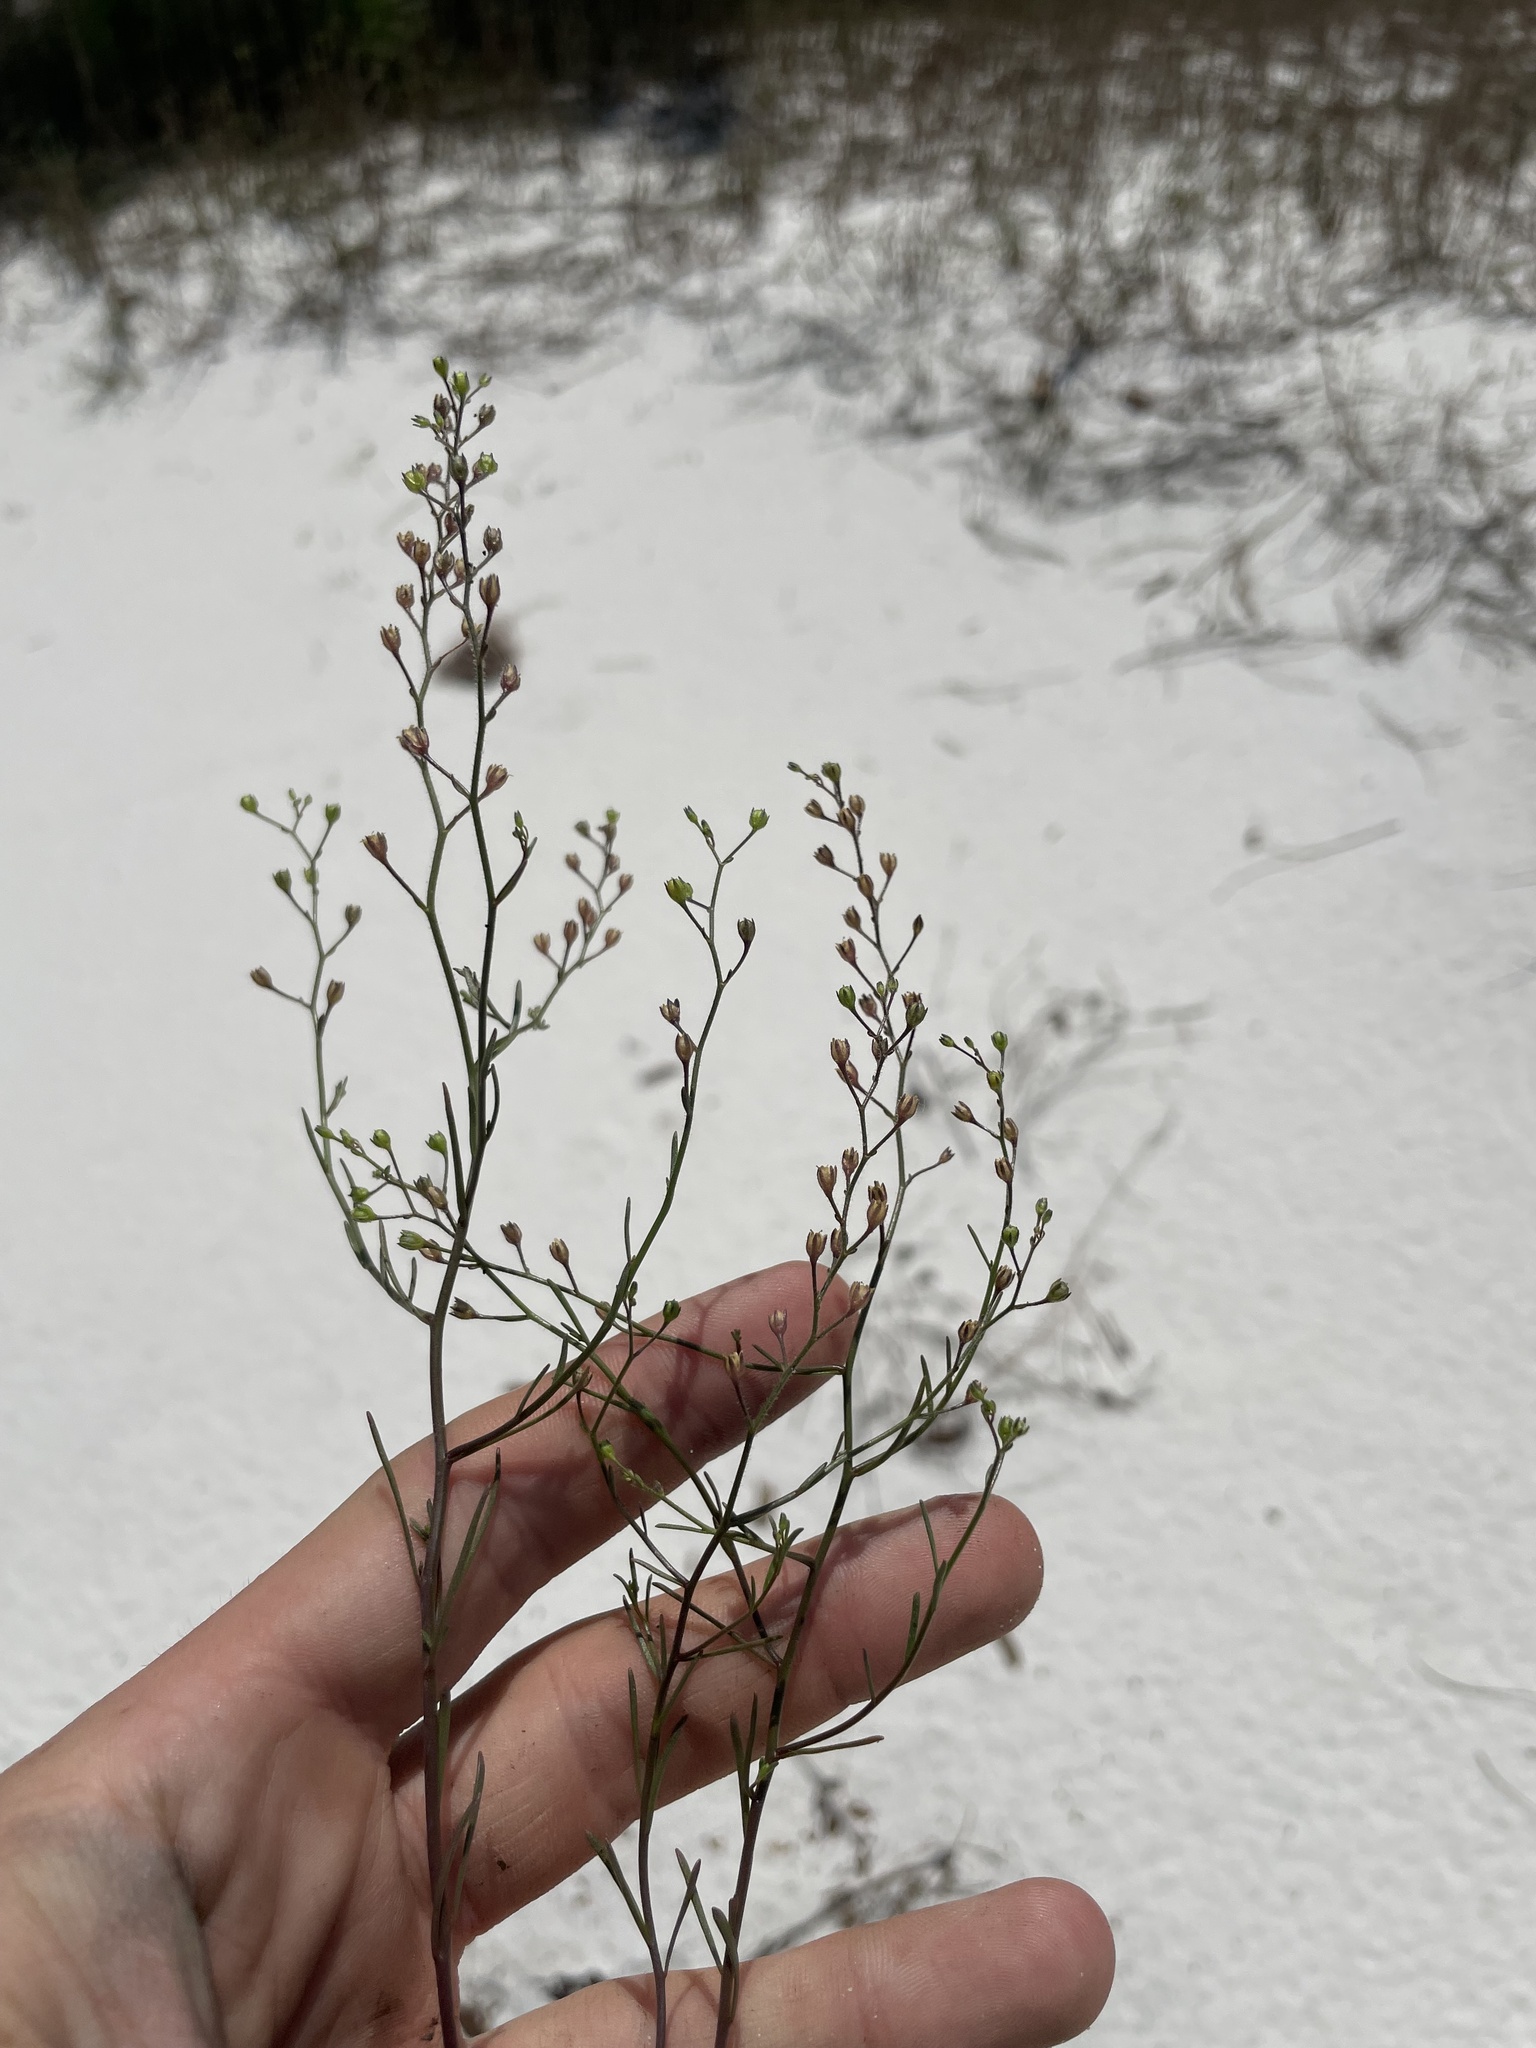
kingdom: Plantae
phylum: Tracheophyta
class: Magnoliopsida
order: Lamiales
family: Plantaginaceae
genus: Nuttallanthus
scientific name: Nuttallanthus floridanus
